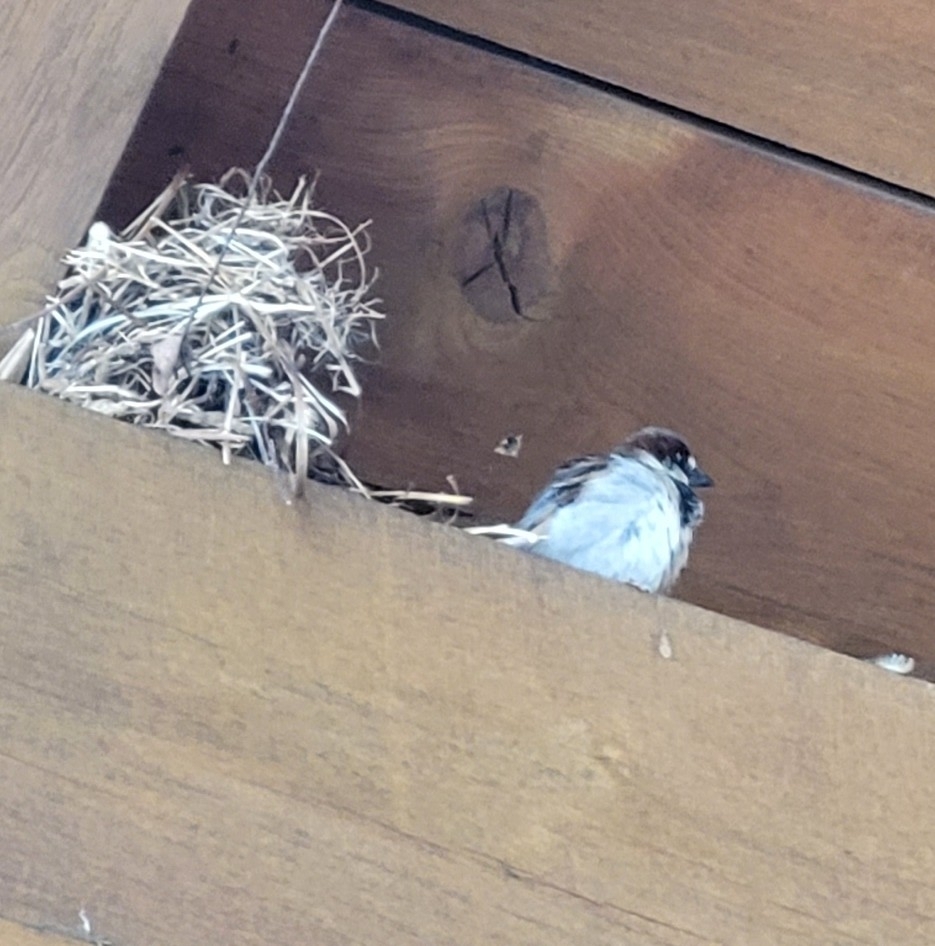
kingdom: Animalia
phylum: Chordata
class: Aves
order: Passeriformes
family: Passeridae
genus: Passer
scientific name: Passer domesticus
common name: House sparrow
